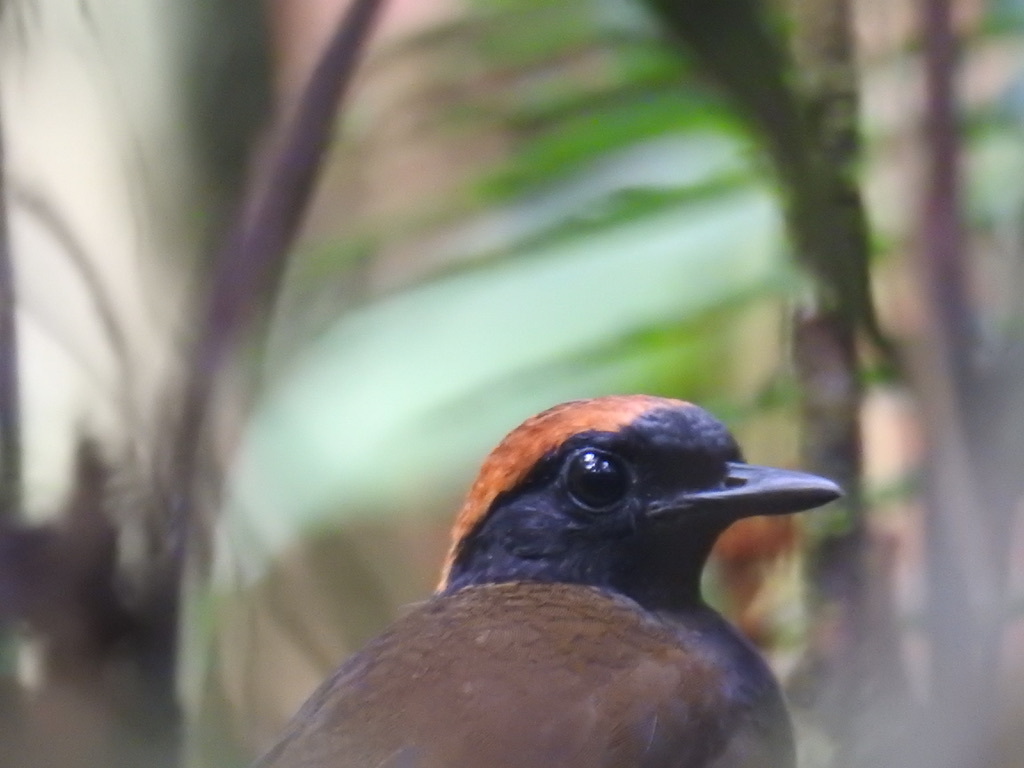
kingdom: Animalia
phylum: Chordata
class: Aves
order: Passeriformes
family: Formicariidae
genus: Formicarius
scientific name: Formicarius colma
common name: Rufous-capped antthrush
